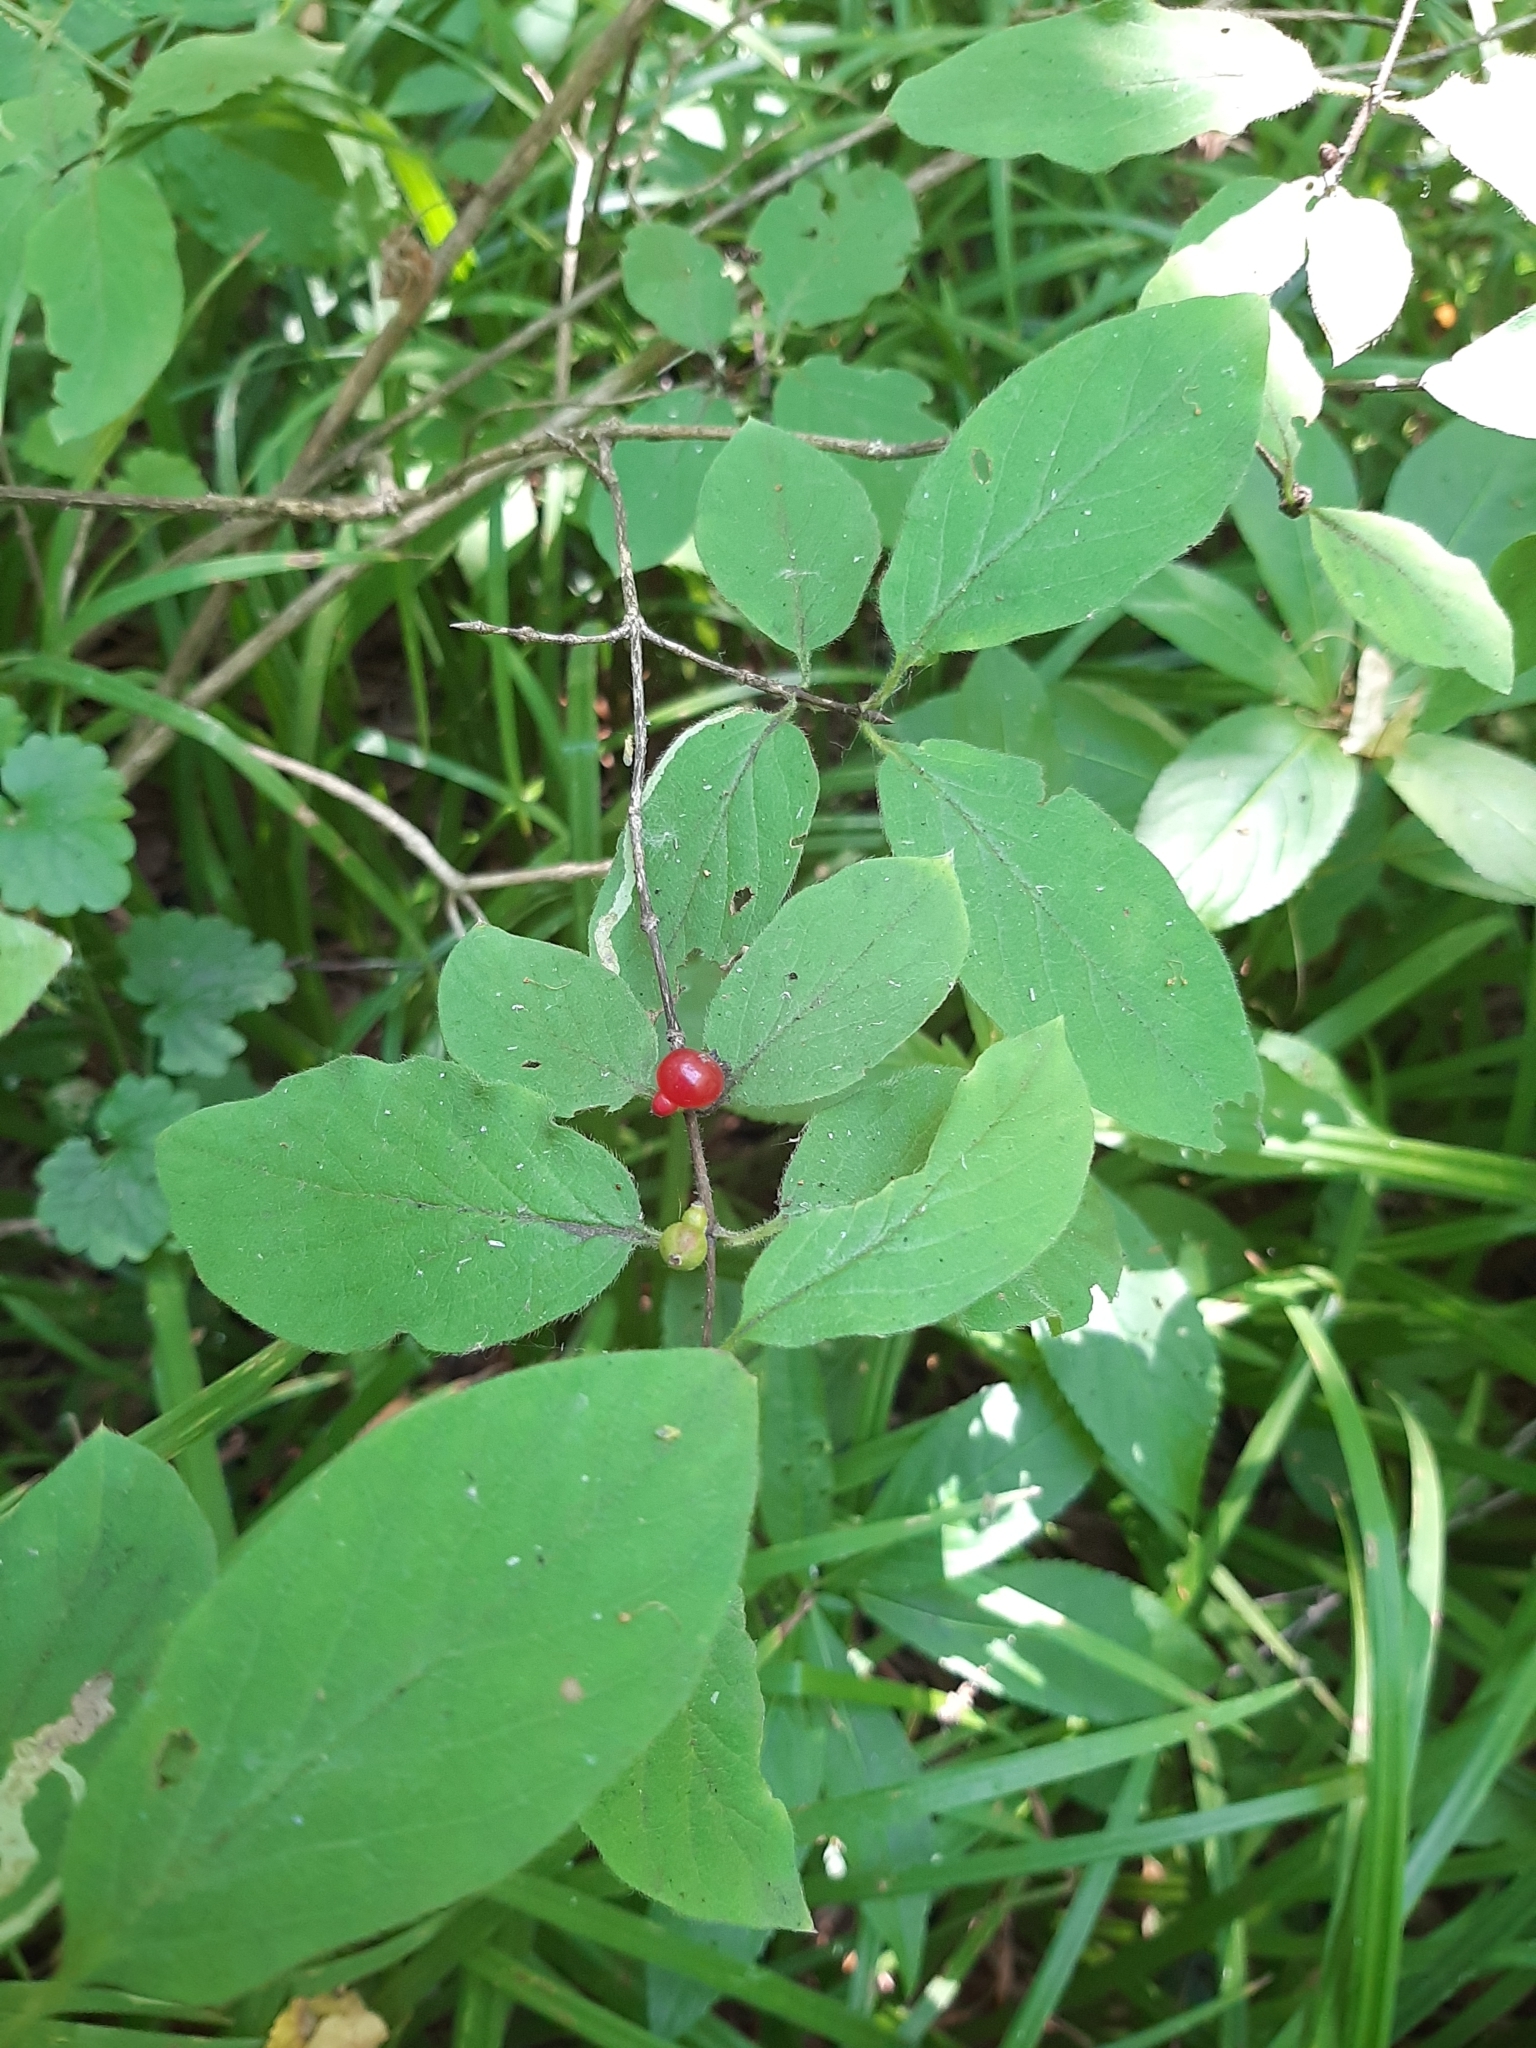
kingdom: Plantae
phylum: Tracheophyta
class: Magnoliopsida
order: Dipsacales
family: Caprifoliaceae
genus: Lonicera
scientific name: Lonicera xylosteum
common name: Fly honeysuckle
